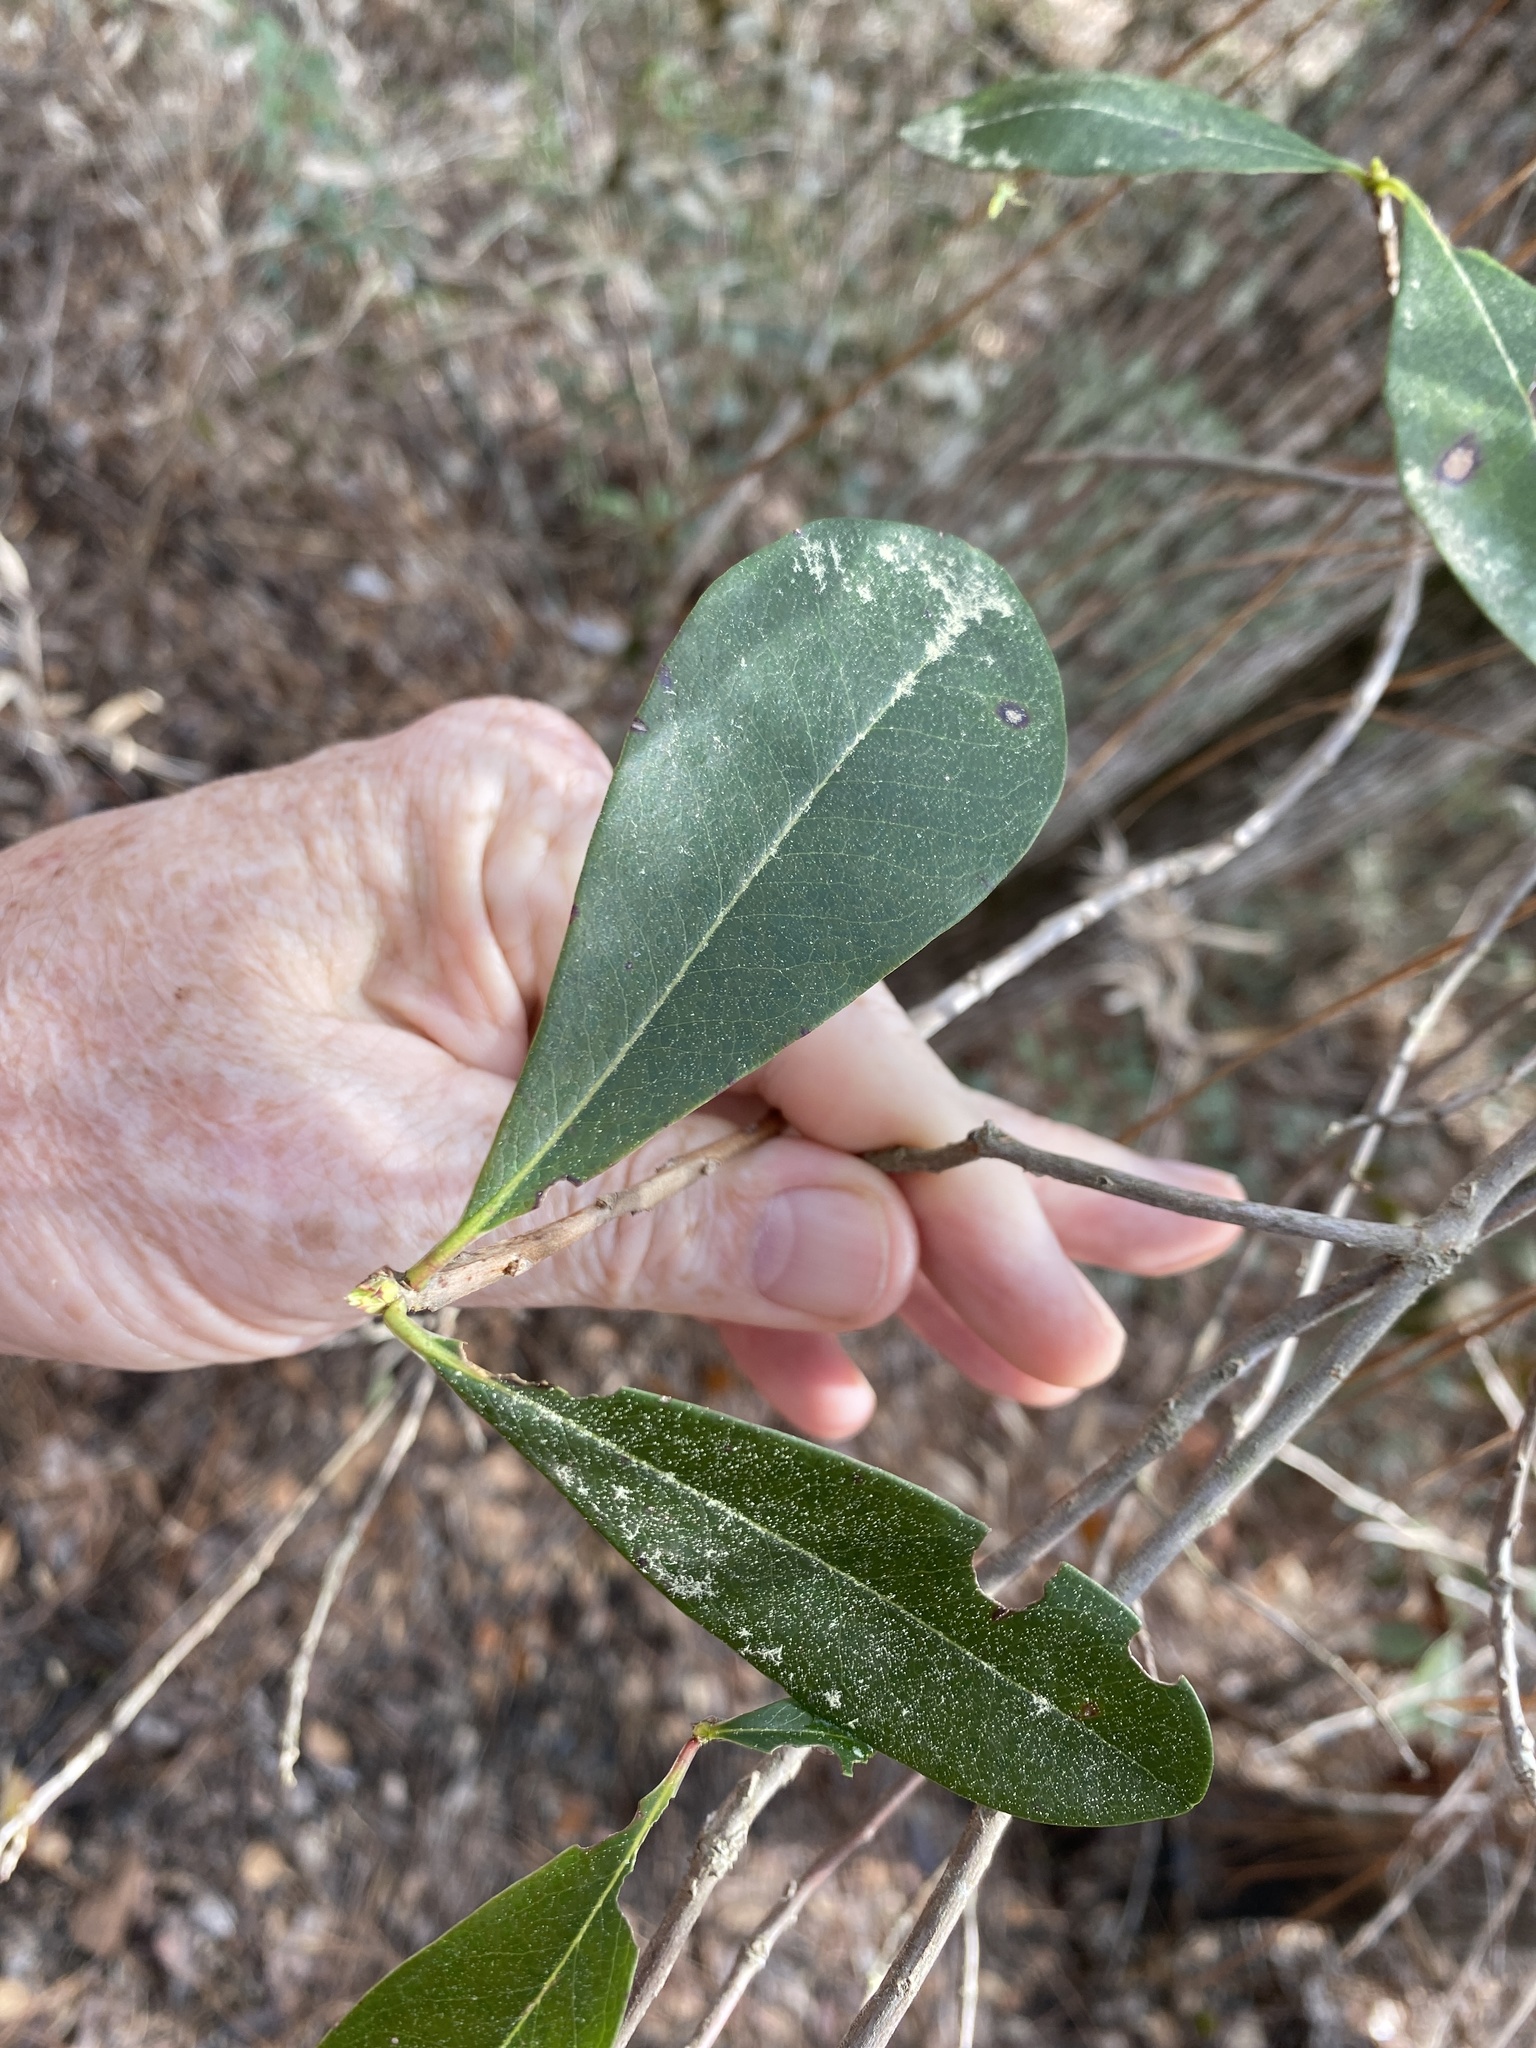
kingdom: Plantae
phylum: Tracheophyta
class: Magnoliopsida
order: Ericales
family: Cyrillaceae
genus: Cyrilla
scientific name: Cyrilla racemiflora
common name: Black titi
